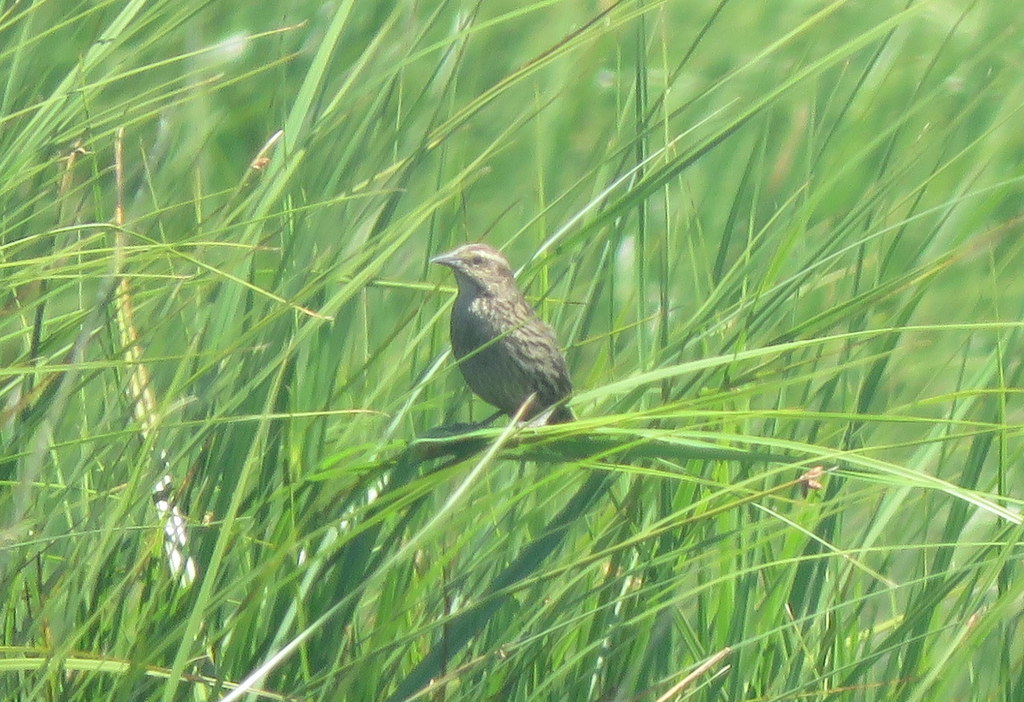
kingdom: Animalia
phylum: Chordata
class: Aves
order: Passeriformes
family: Icteridae
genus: Agelasticus
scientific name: Agelasticus thilius
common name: Yellow-winged blackbird
